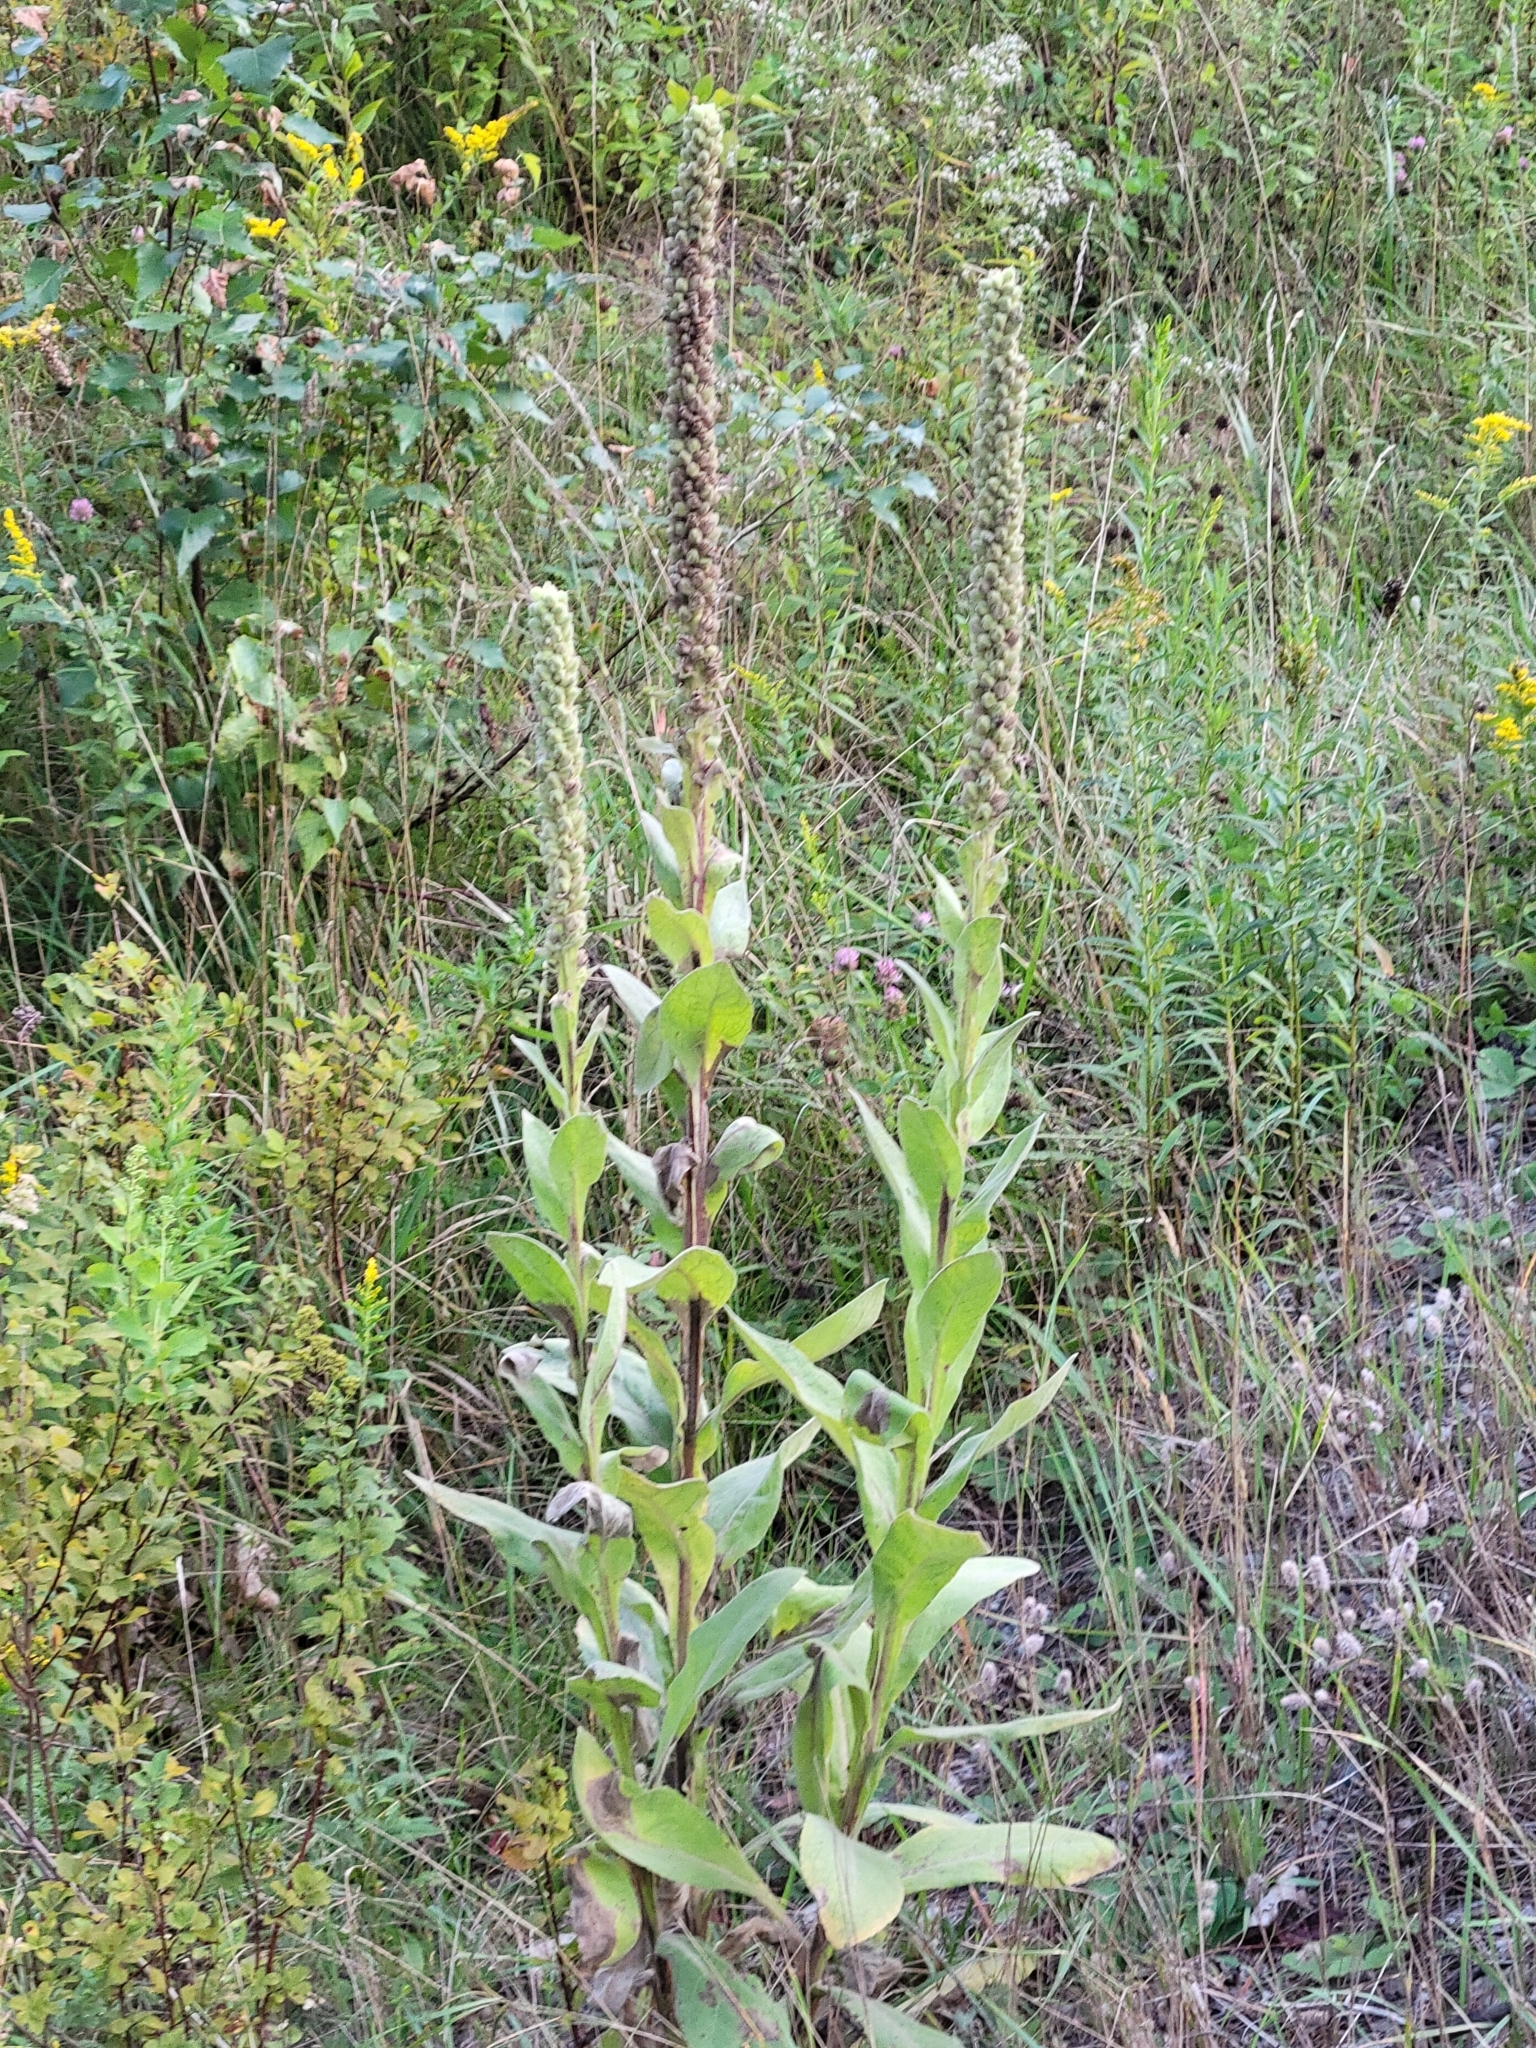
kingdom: Plantae
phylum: Tracheophyta
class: Magnoliopsida
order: Lamiales
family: Scrophulariaceae
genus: Verbascum
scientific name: Verbascum thapsus
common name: Common mullein
